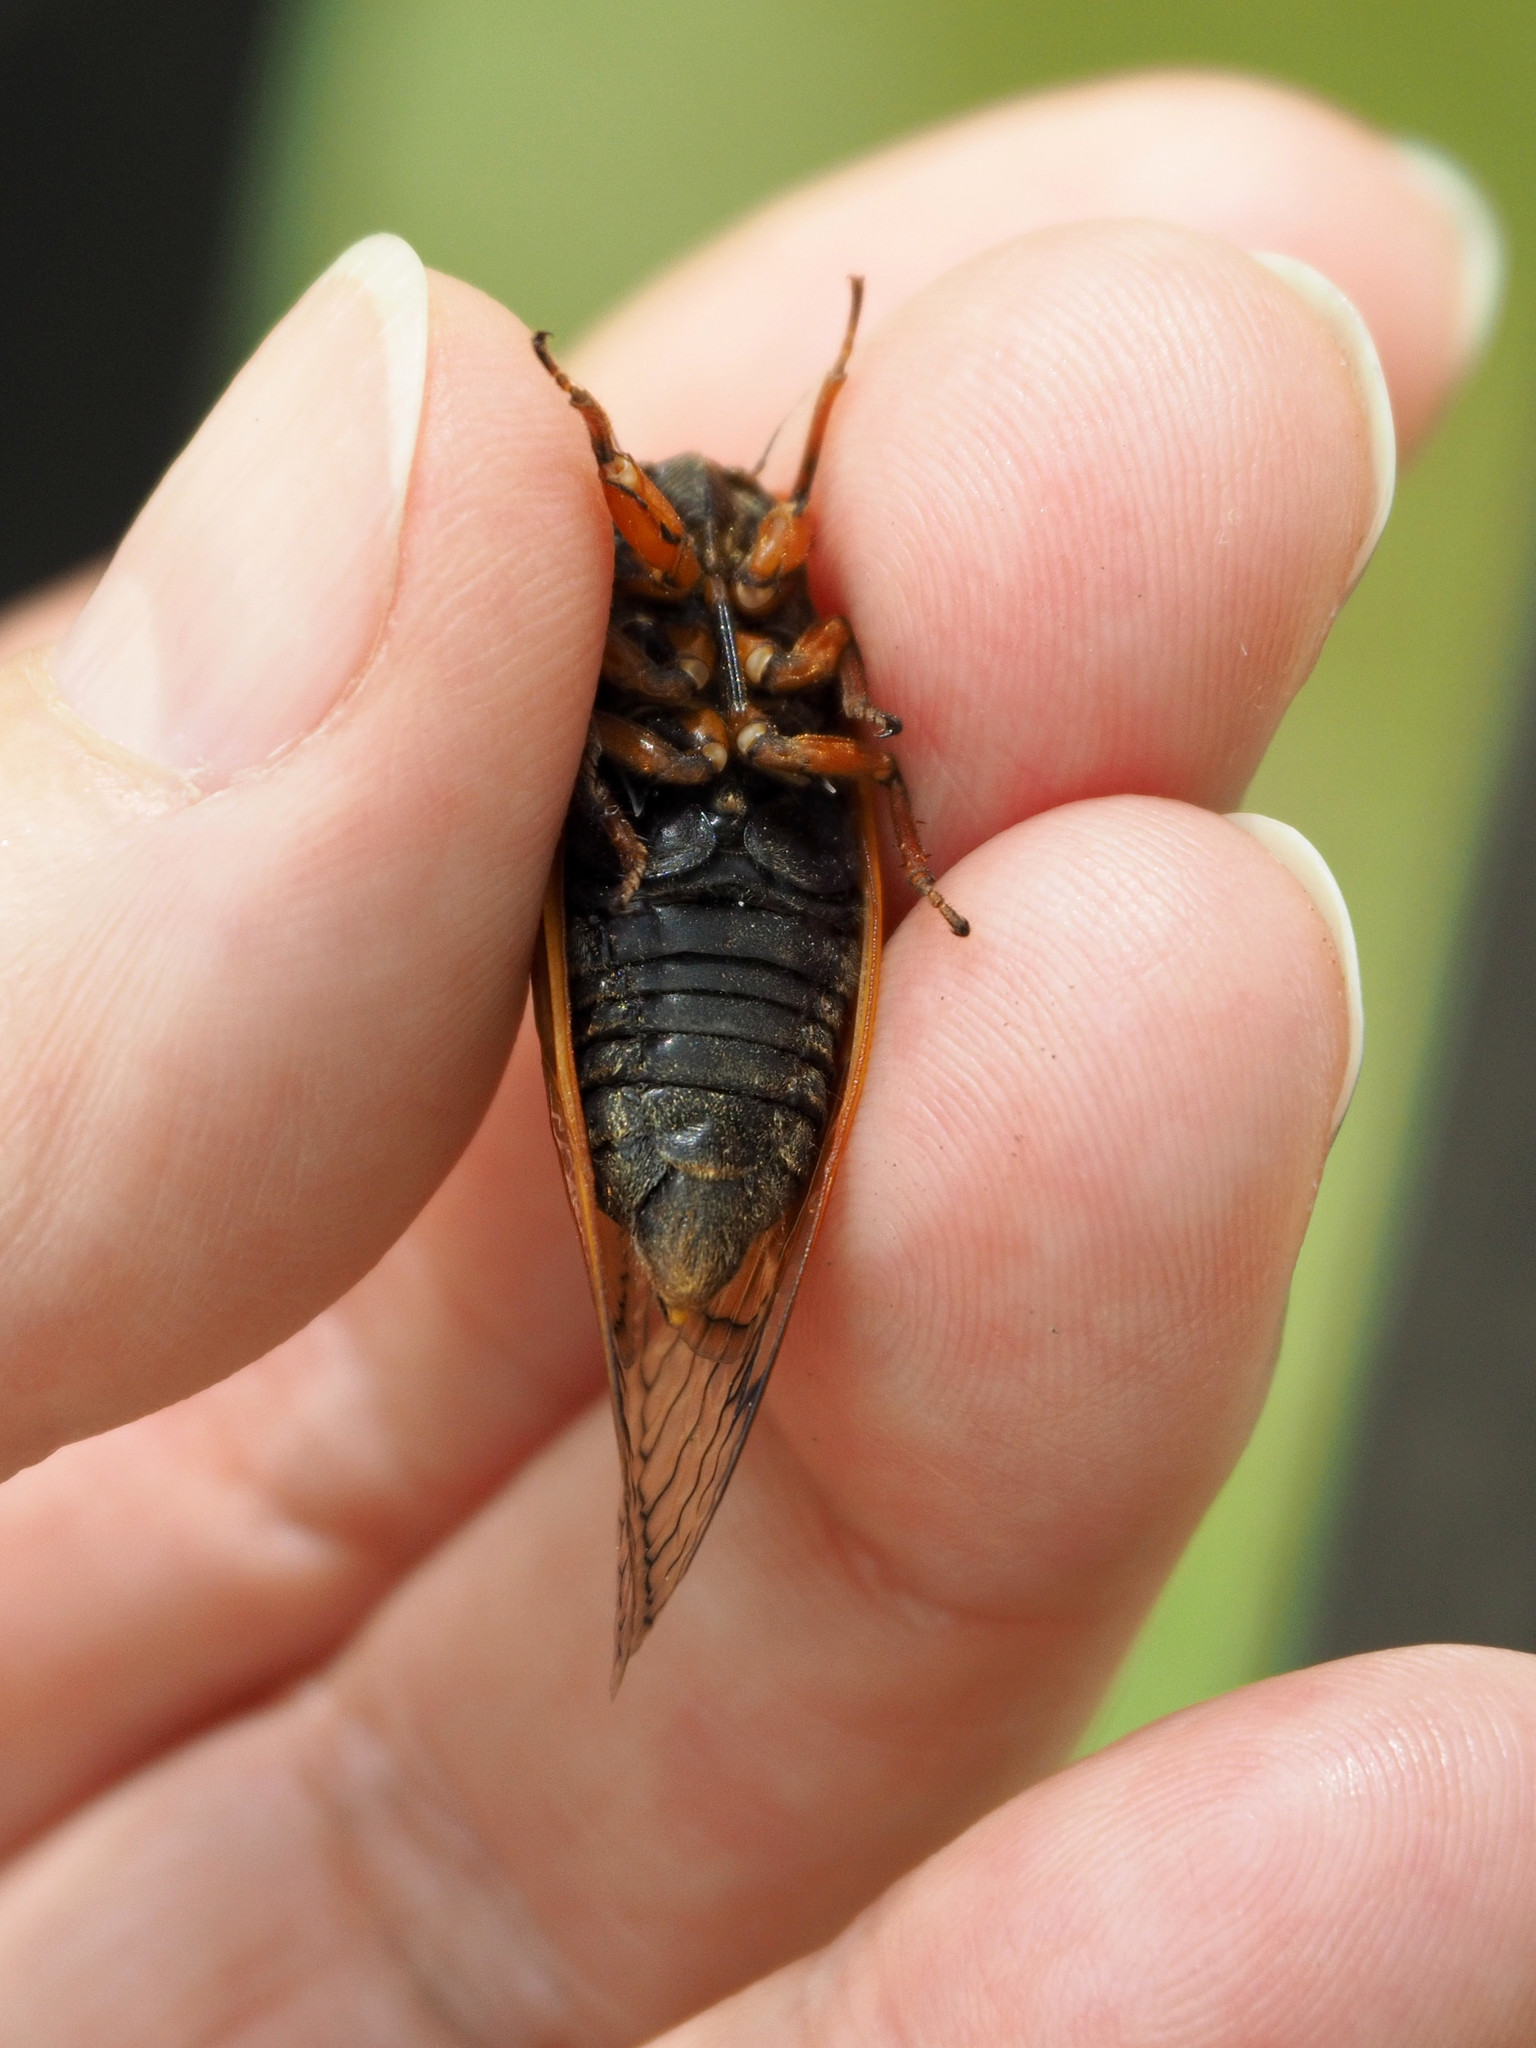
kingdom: Animalia
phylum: Arthropoda
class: Insecta
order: Hemiptera
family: Cicadidae
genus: Magicicada
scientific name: Magicicada cassini
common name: Cassin's 17-year cicada
